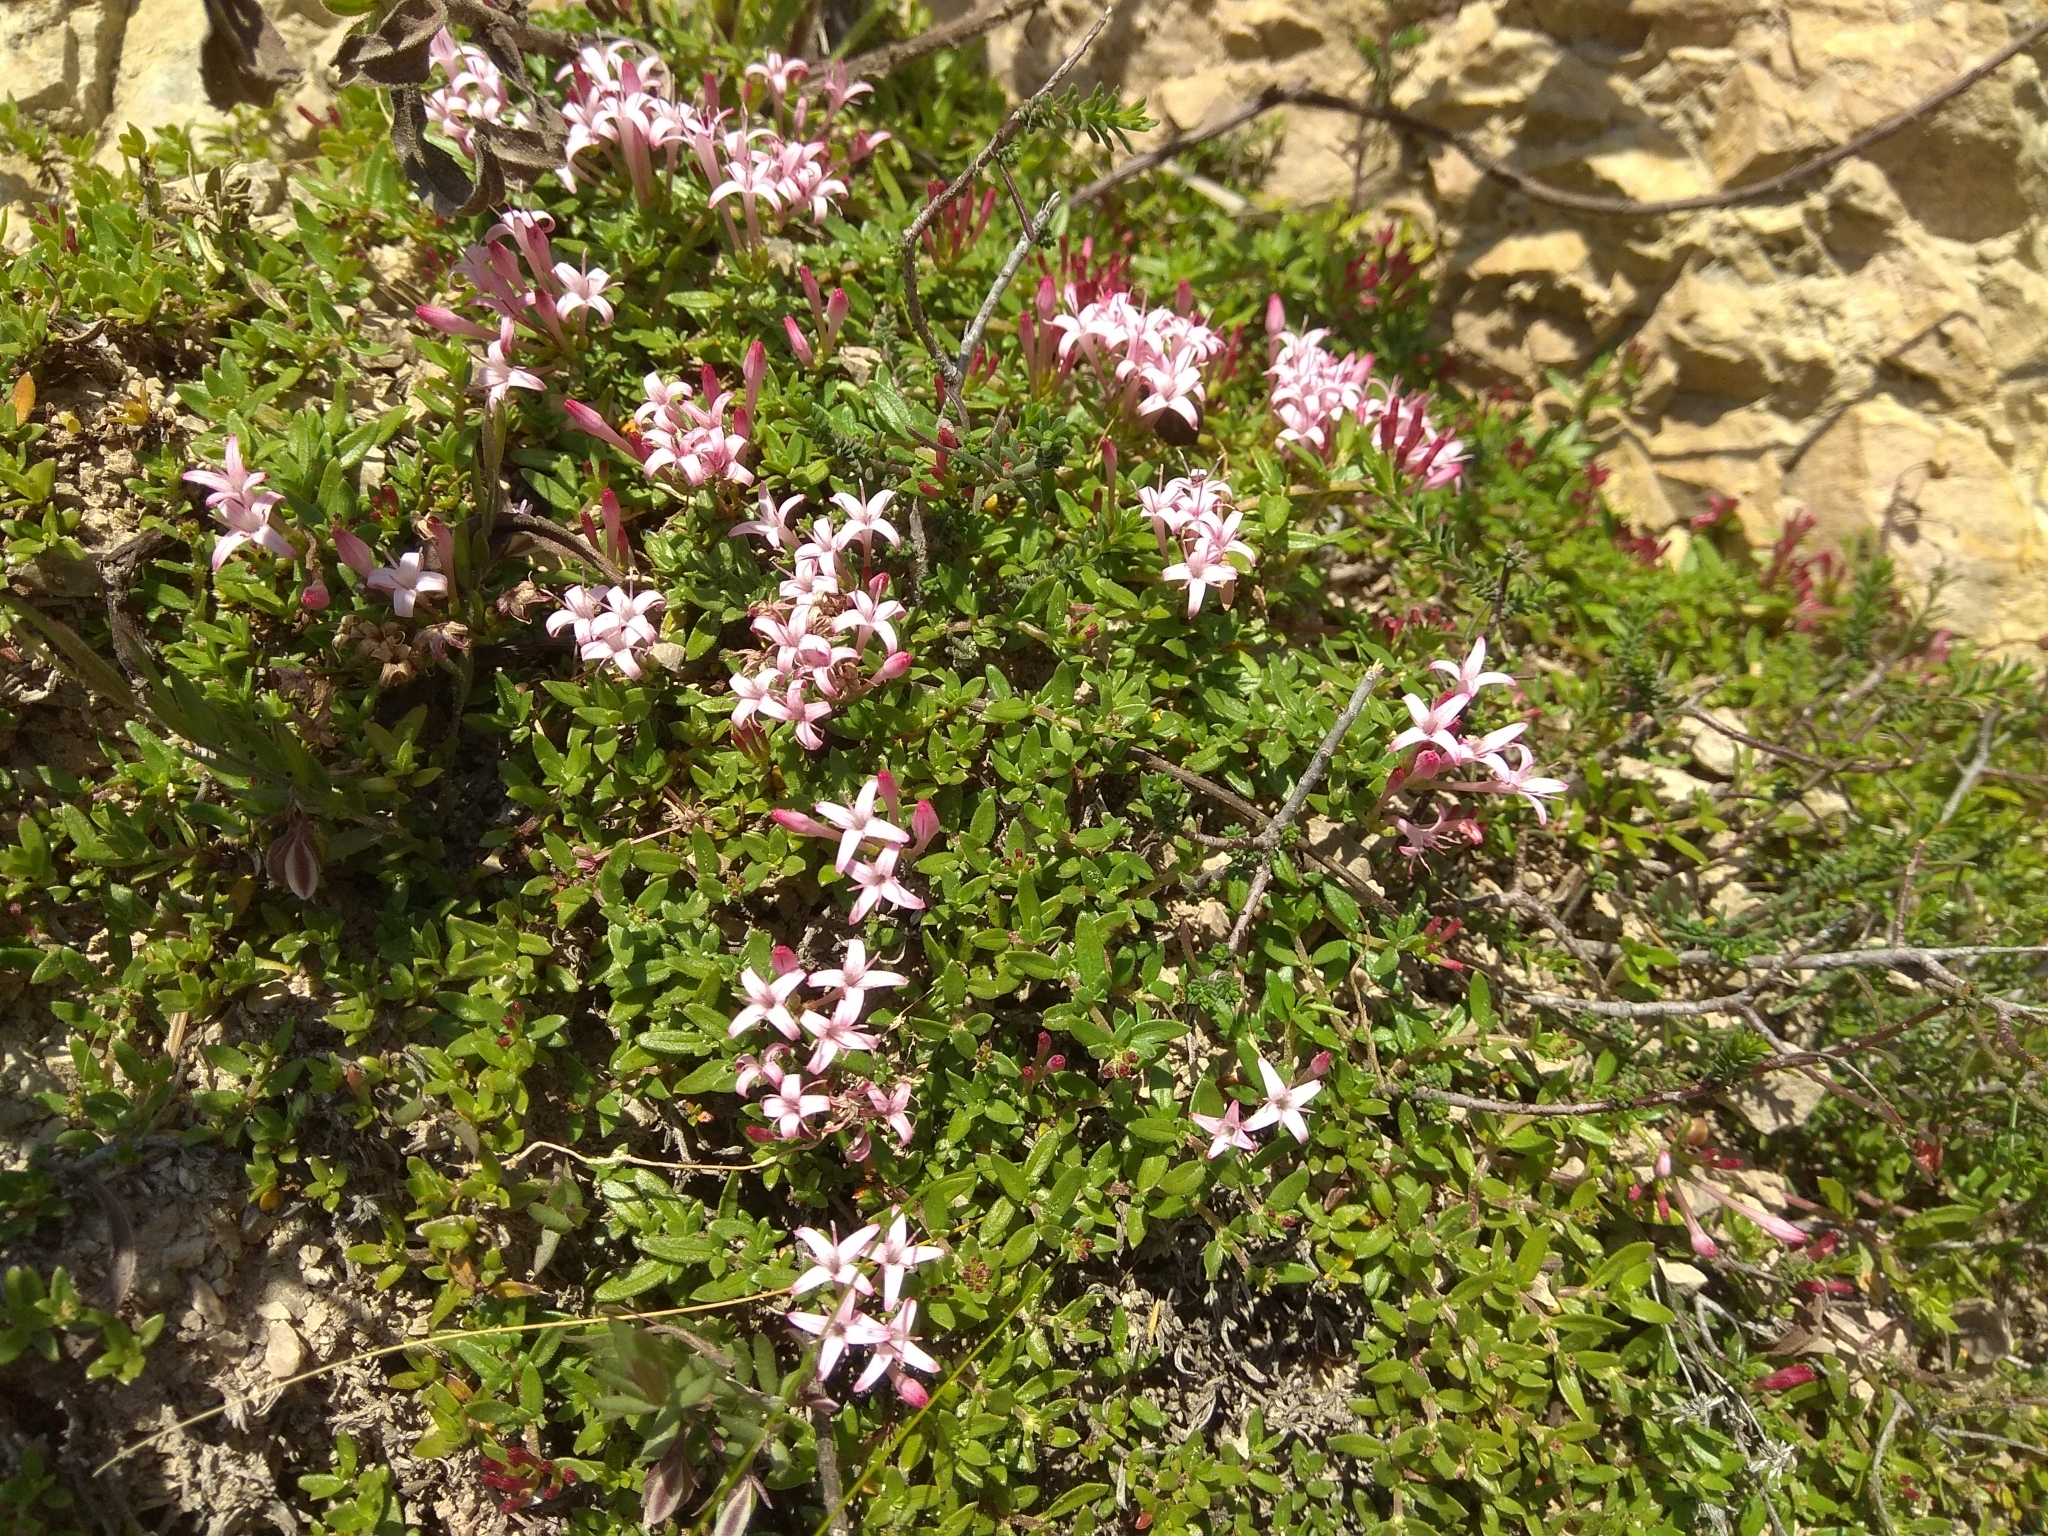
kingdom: Plantae
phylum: Tracheophyta
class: Magnoliopsida
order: Gentianales
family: Rubiaceae
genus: Plocama
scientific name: Plocama calabrica
